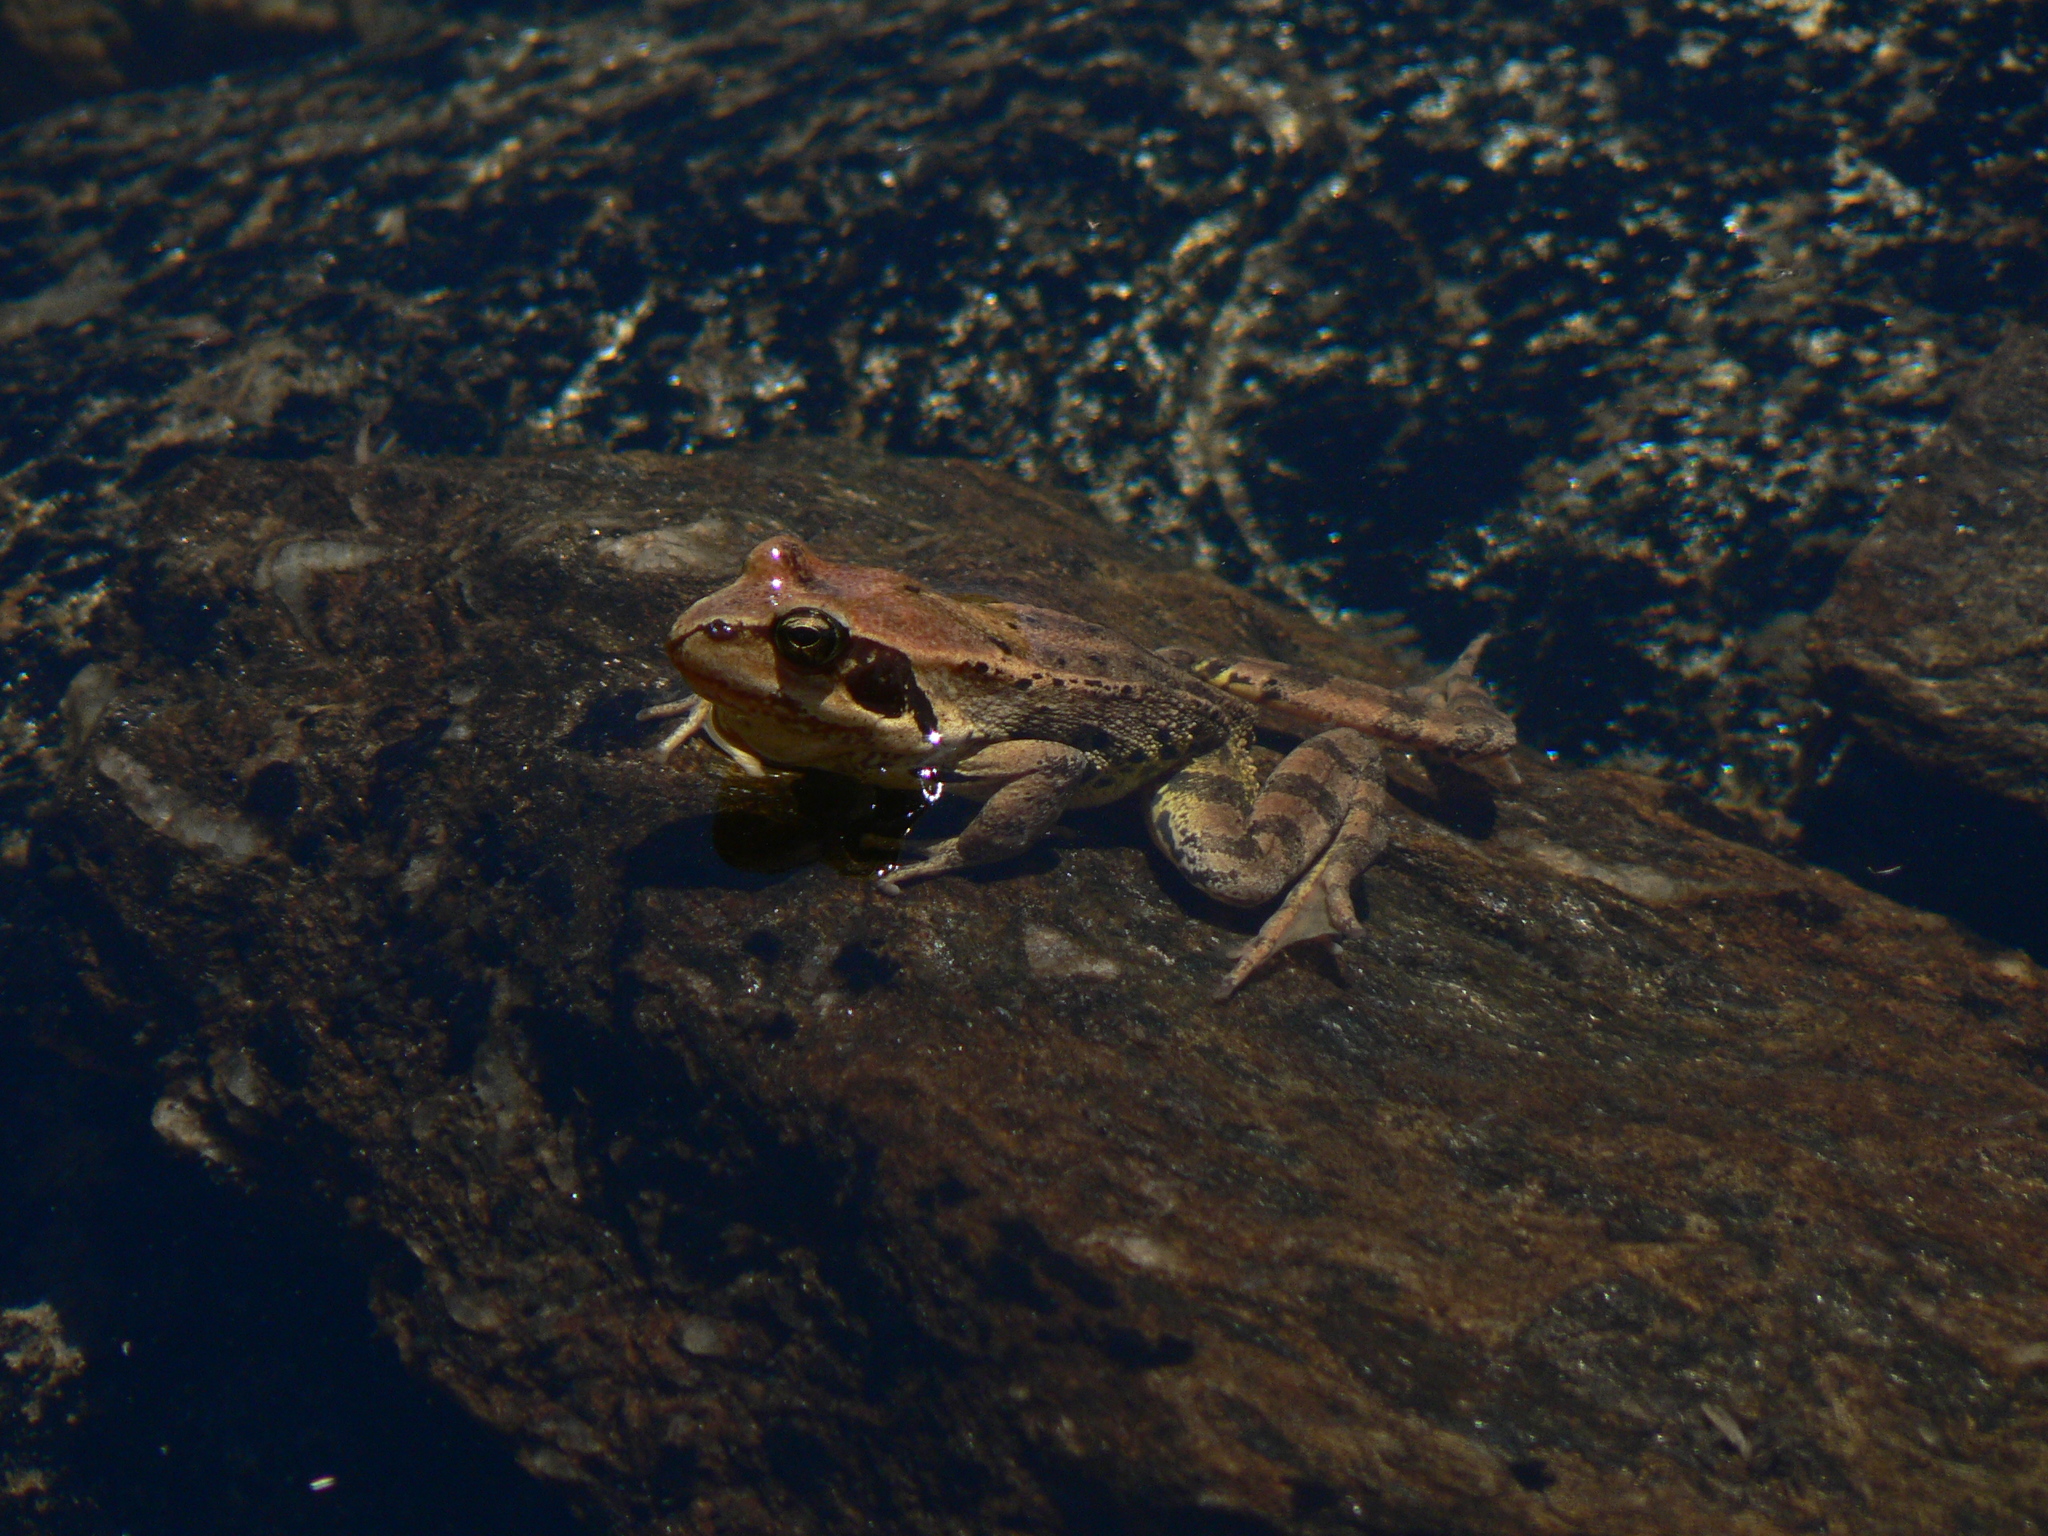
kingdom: Animalia
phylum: Chordata
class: Amphibia
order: Anura
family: Ranidae
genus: Rana
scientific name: Rana temporaria
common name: Common frog
